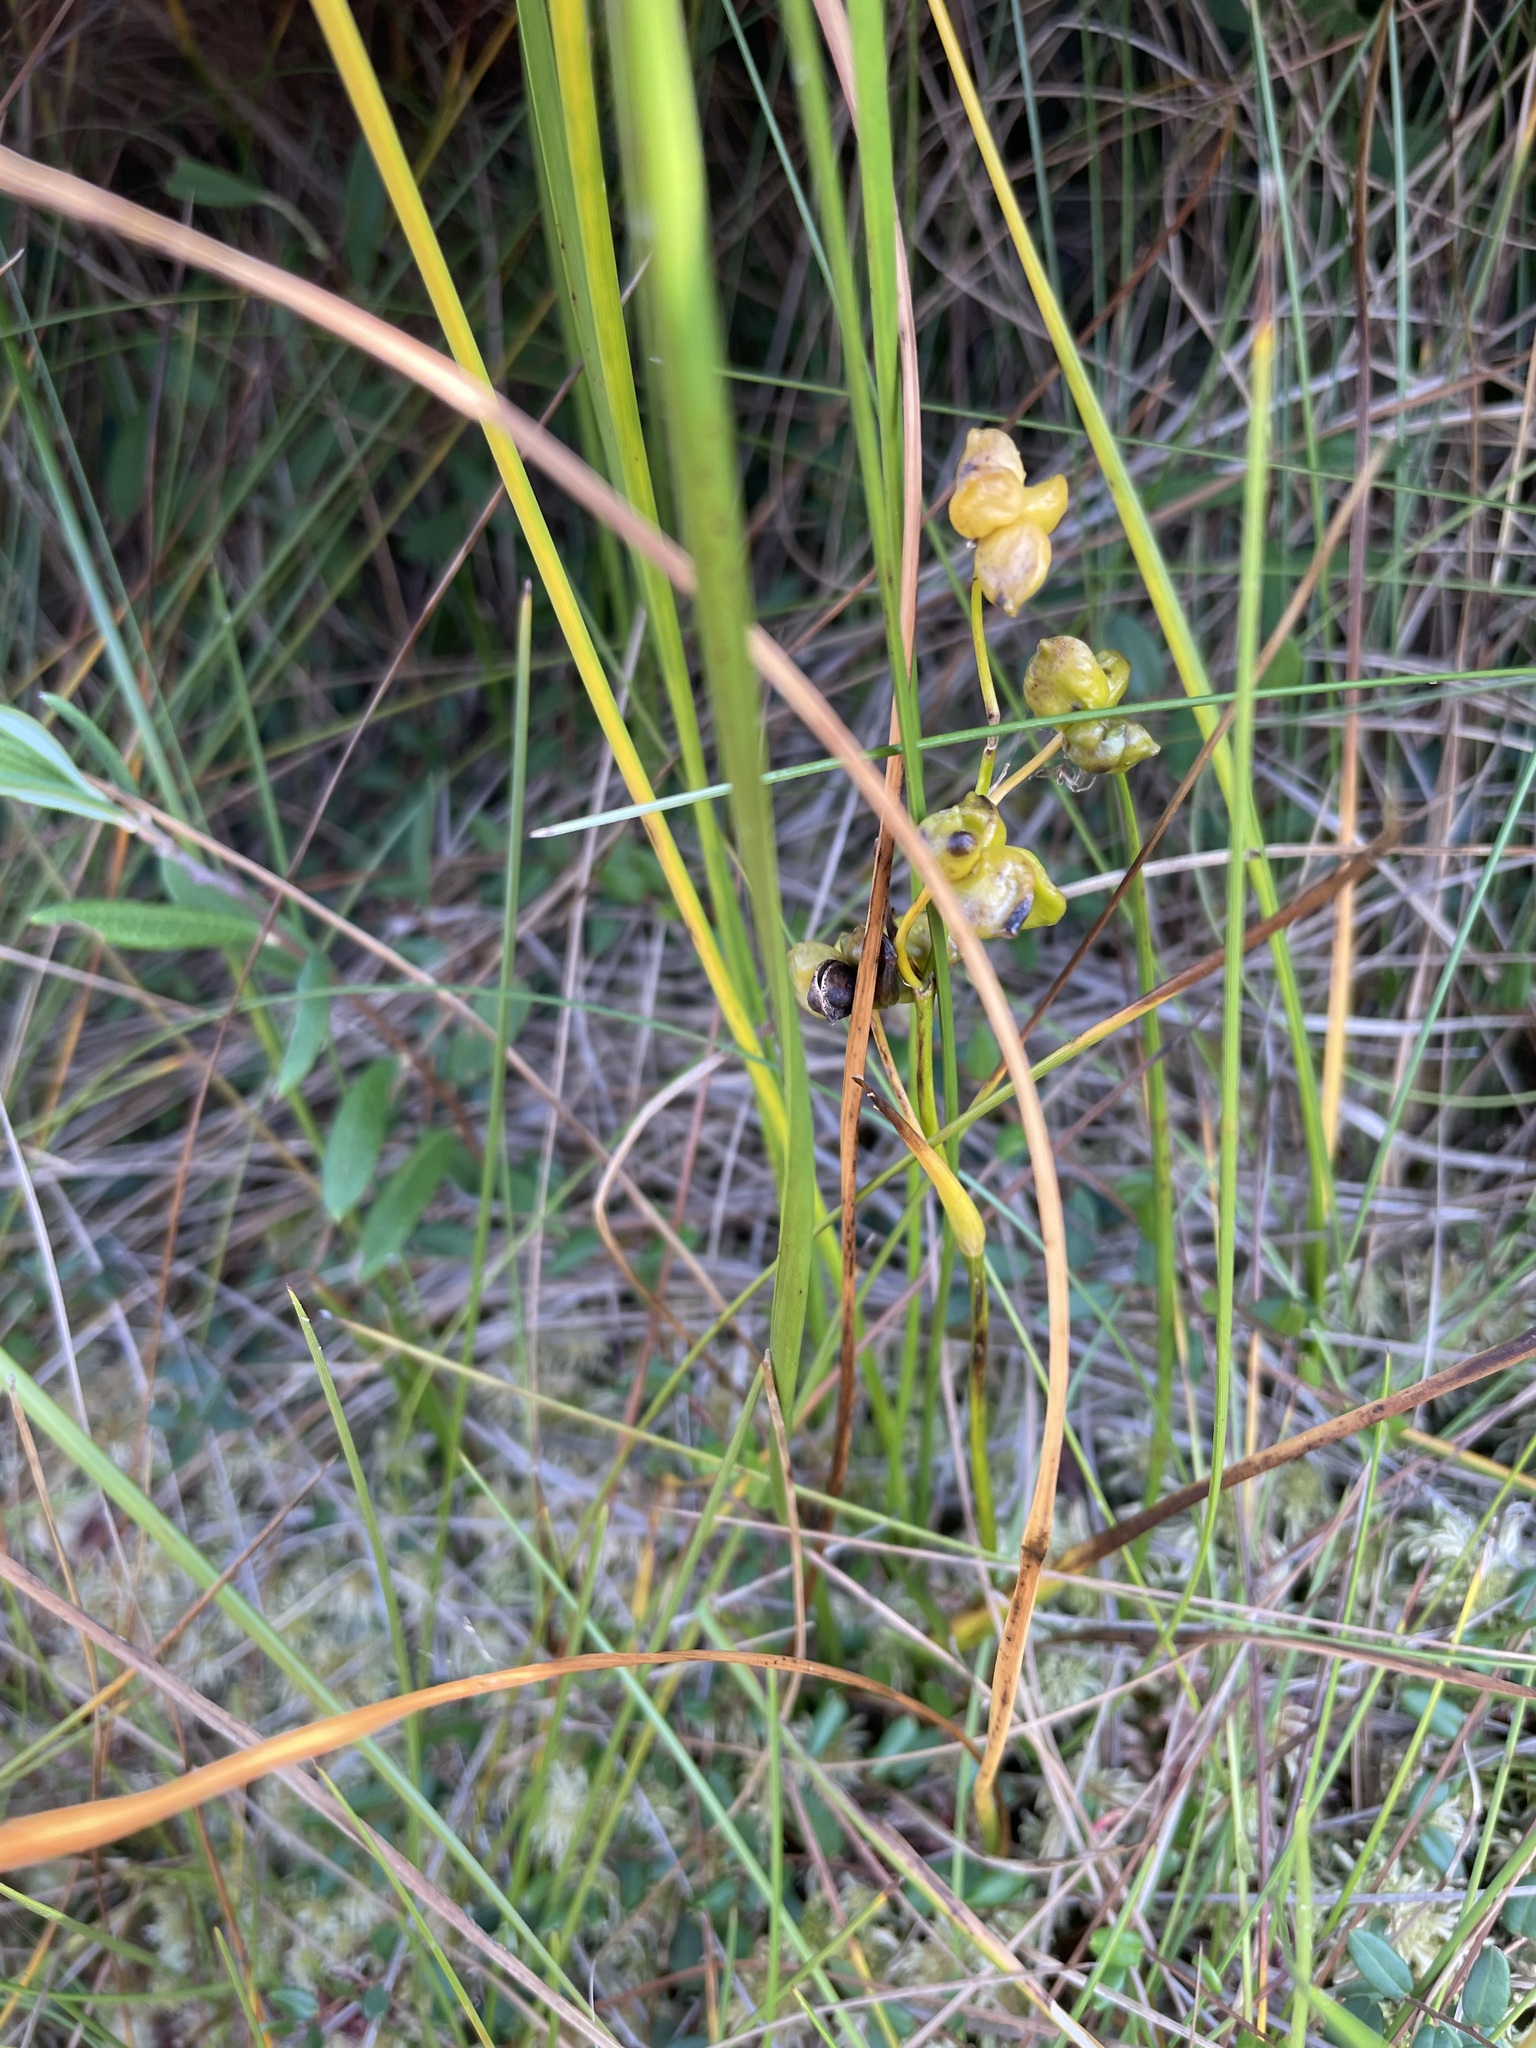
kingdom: Plantae
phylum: Tracheophyta
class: Liliopsida
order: Alismatales
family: Scheuchzeriaceae
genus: Scheuchzeria
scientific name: Scheuchzeria palustris
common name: Rannoch-rush
